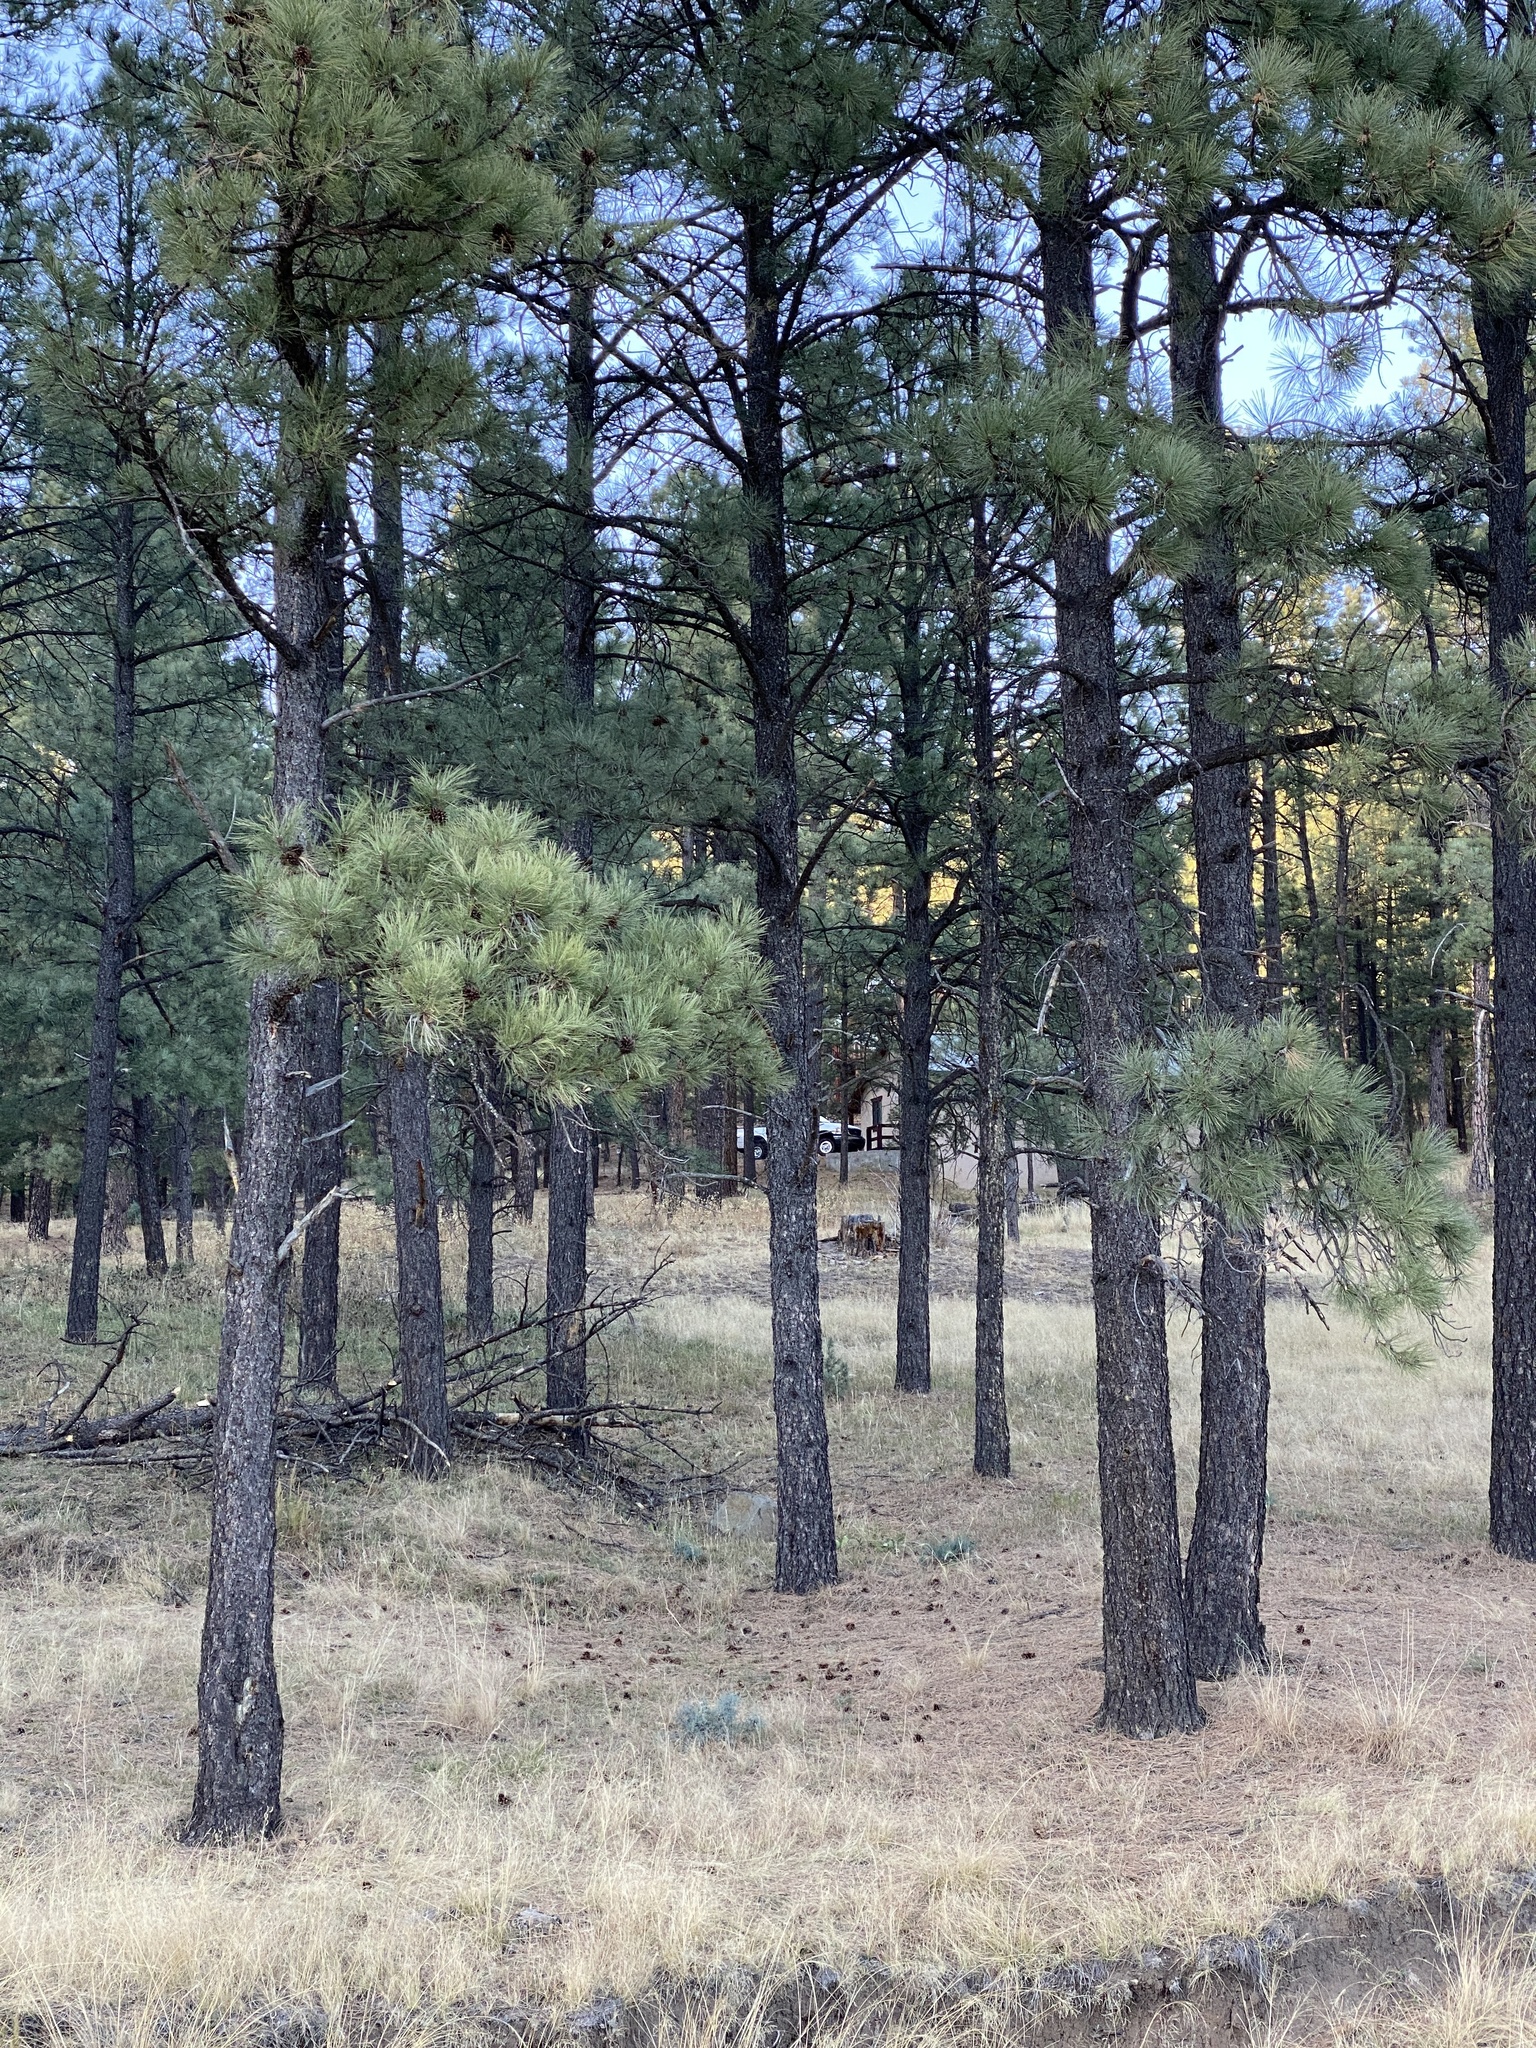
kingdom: Plantae
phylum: Tracheophyta
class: Pinopsida
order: Pinales
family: Pinaceae
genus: Pinus
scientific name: Pinus ponderosa
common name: Western yellow-pine
